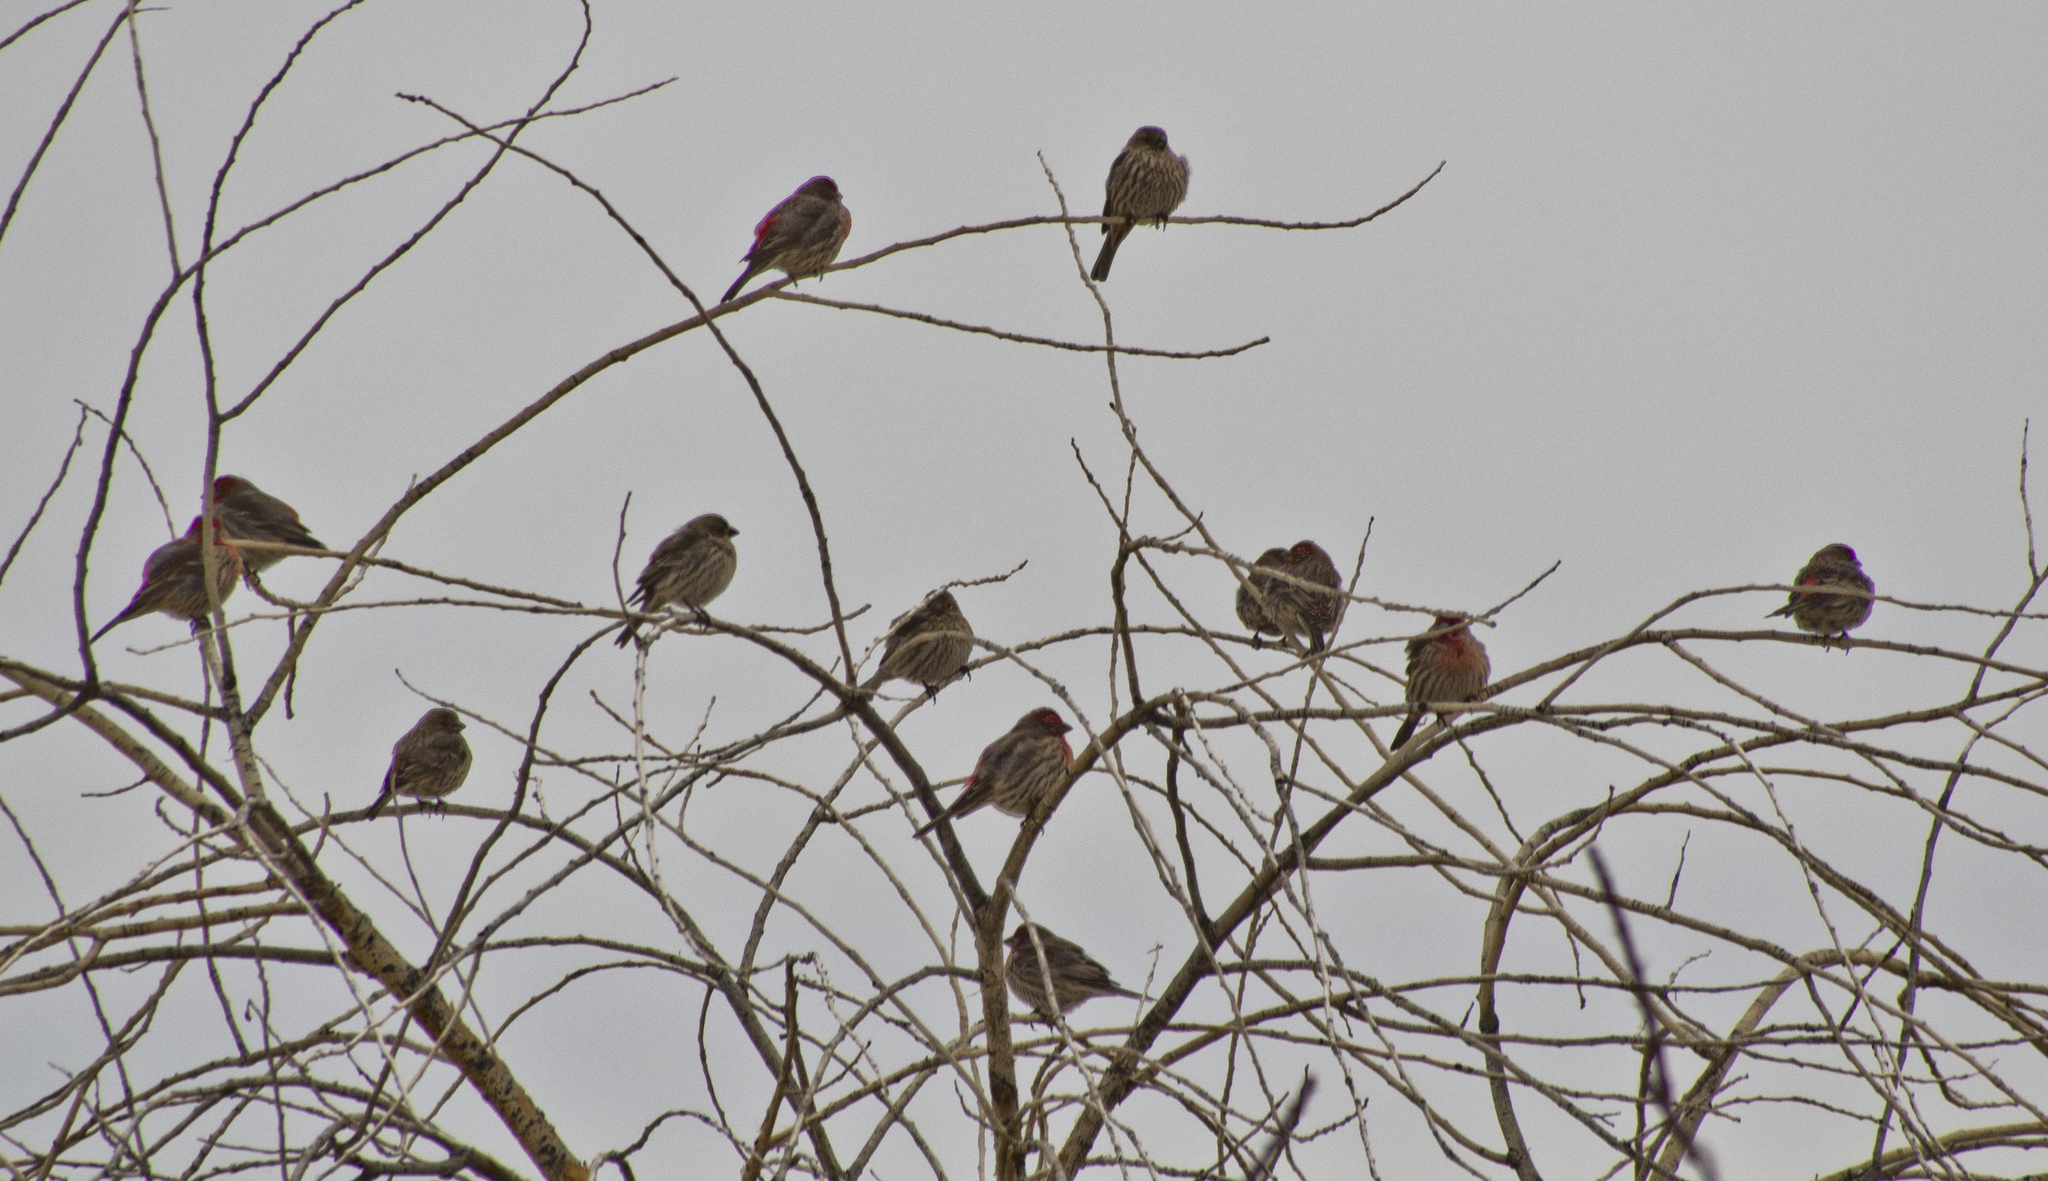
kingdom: Animalia
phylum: Chordata
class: Aves
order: Passeriformes
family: Fringillidae
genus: Haemorhous
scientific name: Haemorhous mexicanus
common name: House finch
